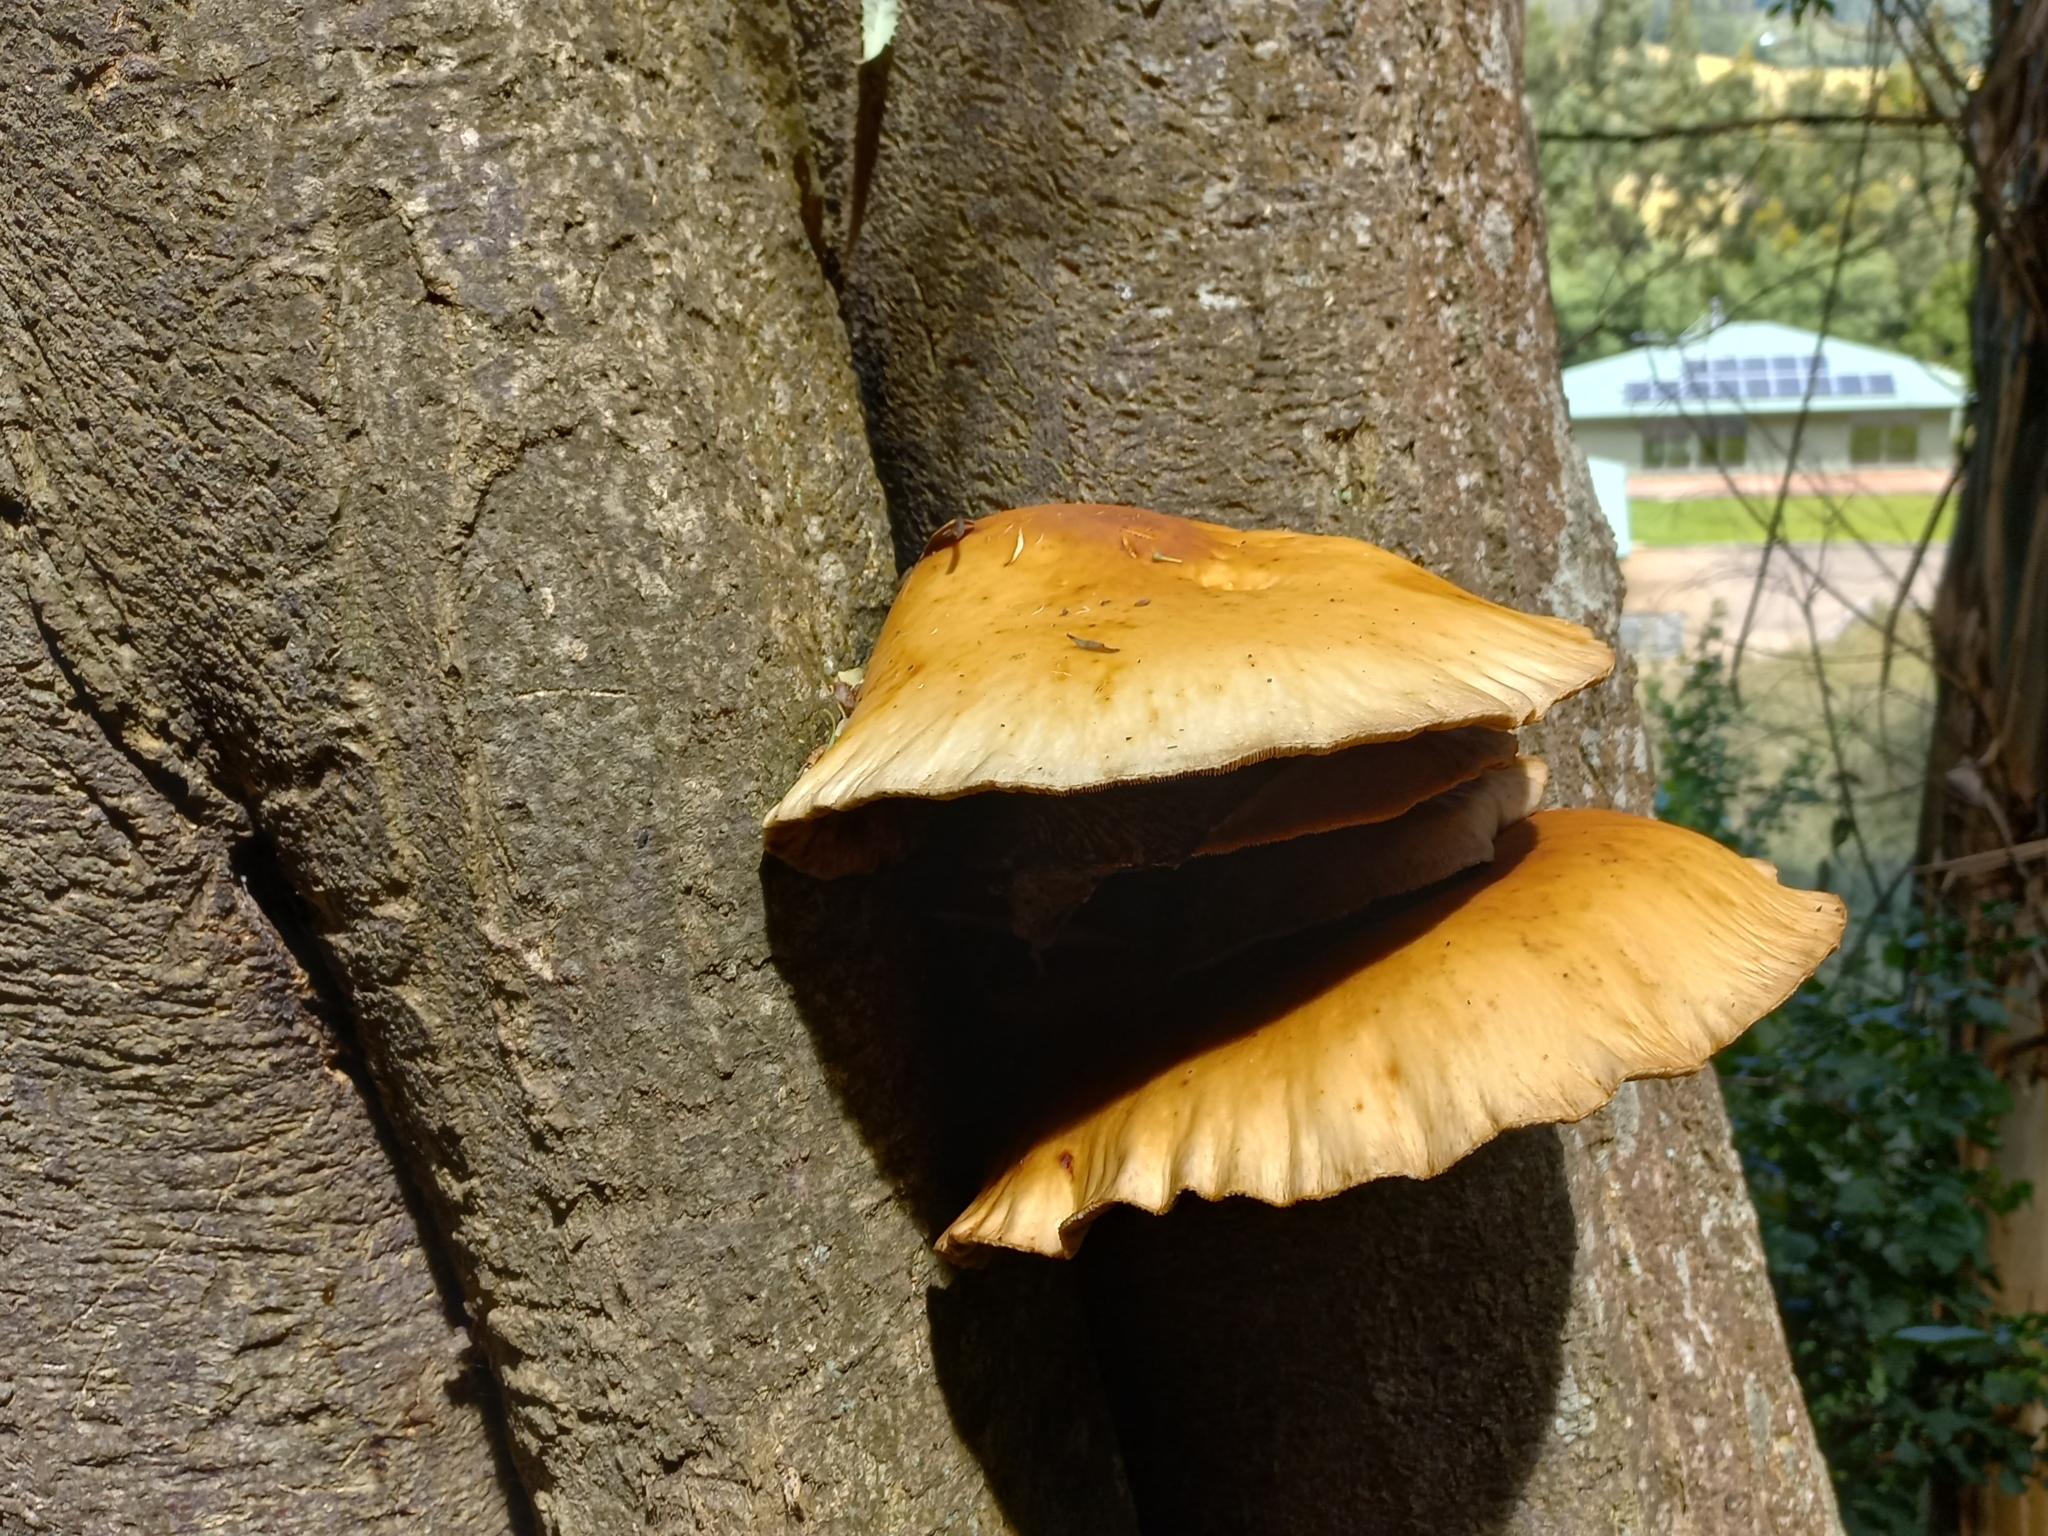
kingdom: Fungi
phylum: Basidiomycota
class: Agaricomycetes
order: Agaricales
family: Tubariaceae
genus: Cyclocybe
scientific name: Cyclocybe parasitica
